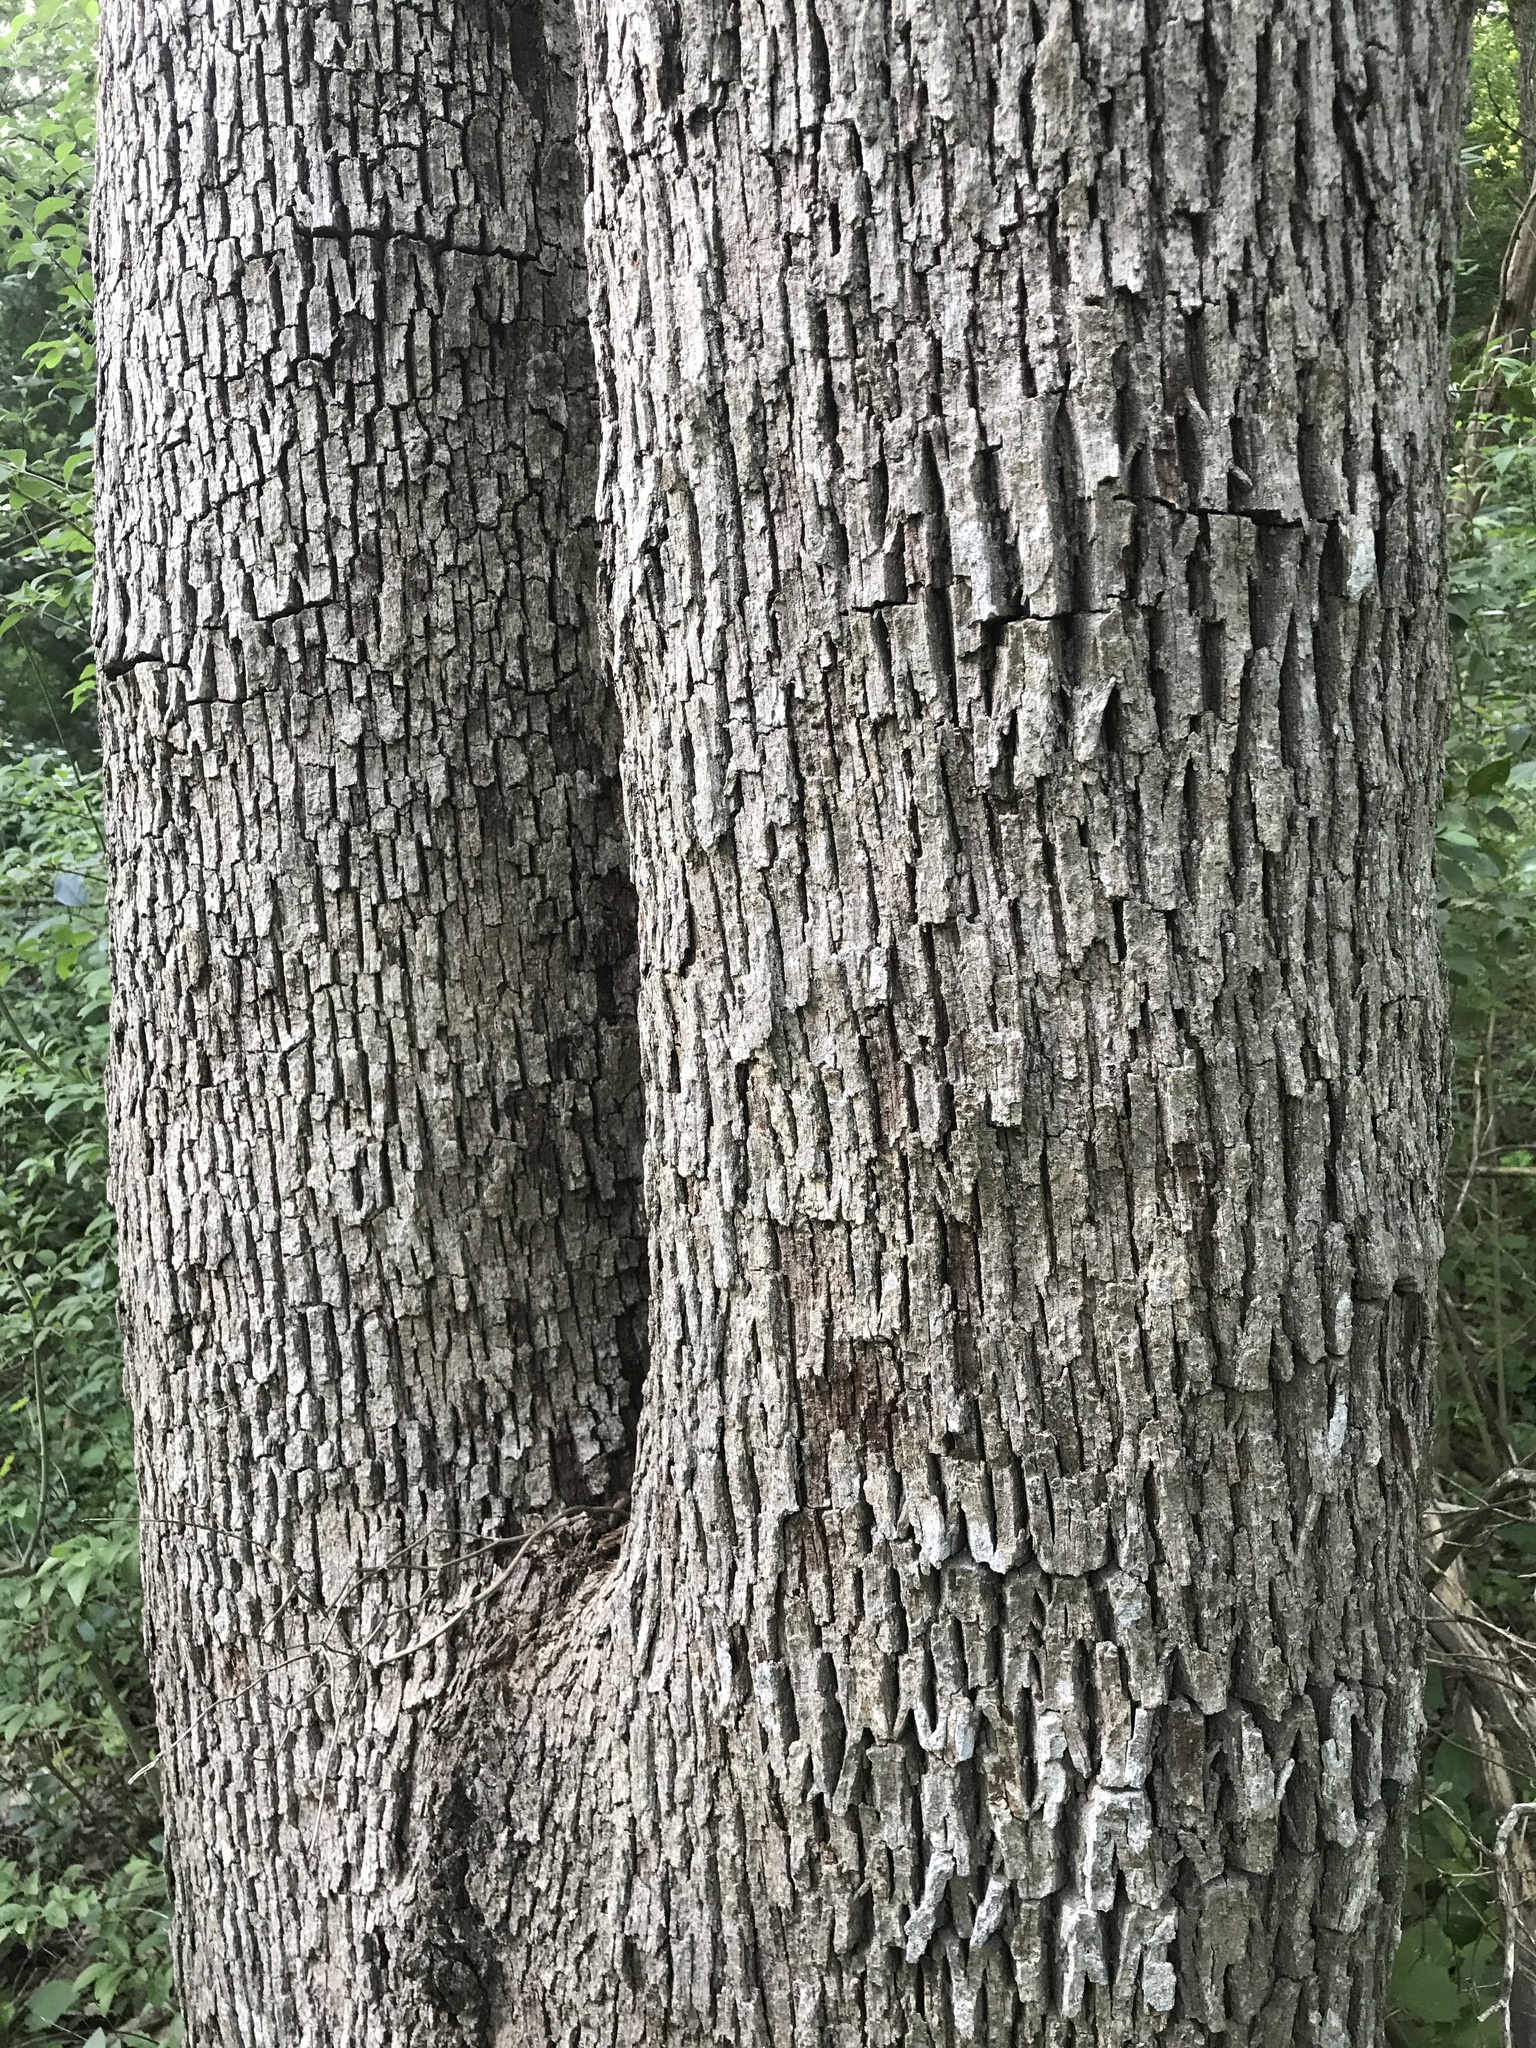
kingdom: Plantae
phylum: Tracheophyta
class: Magnoliopsida
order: Fagales
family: Fagaceae
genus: Quercus
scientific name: Quercus sinuata
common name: Durand oak
